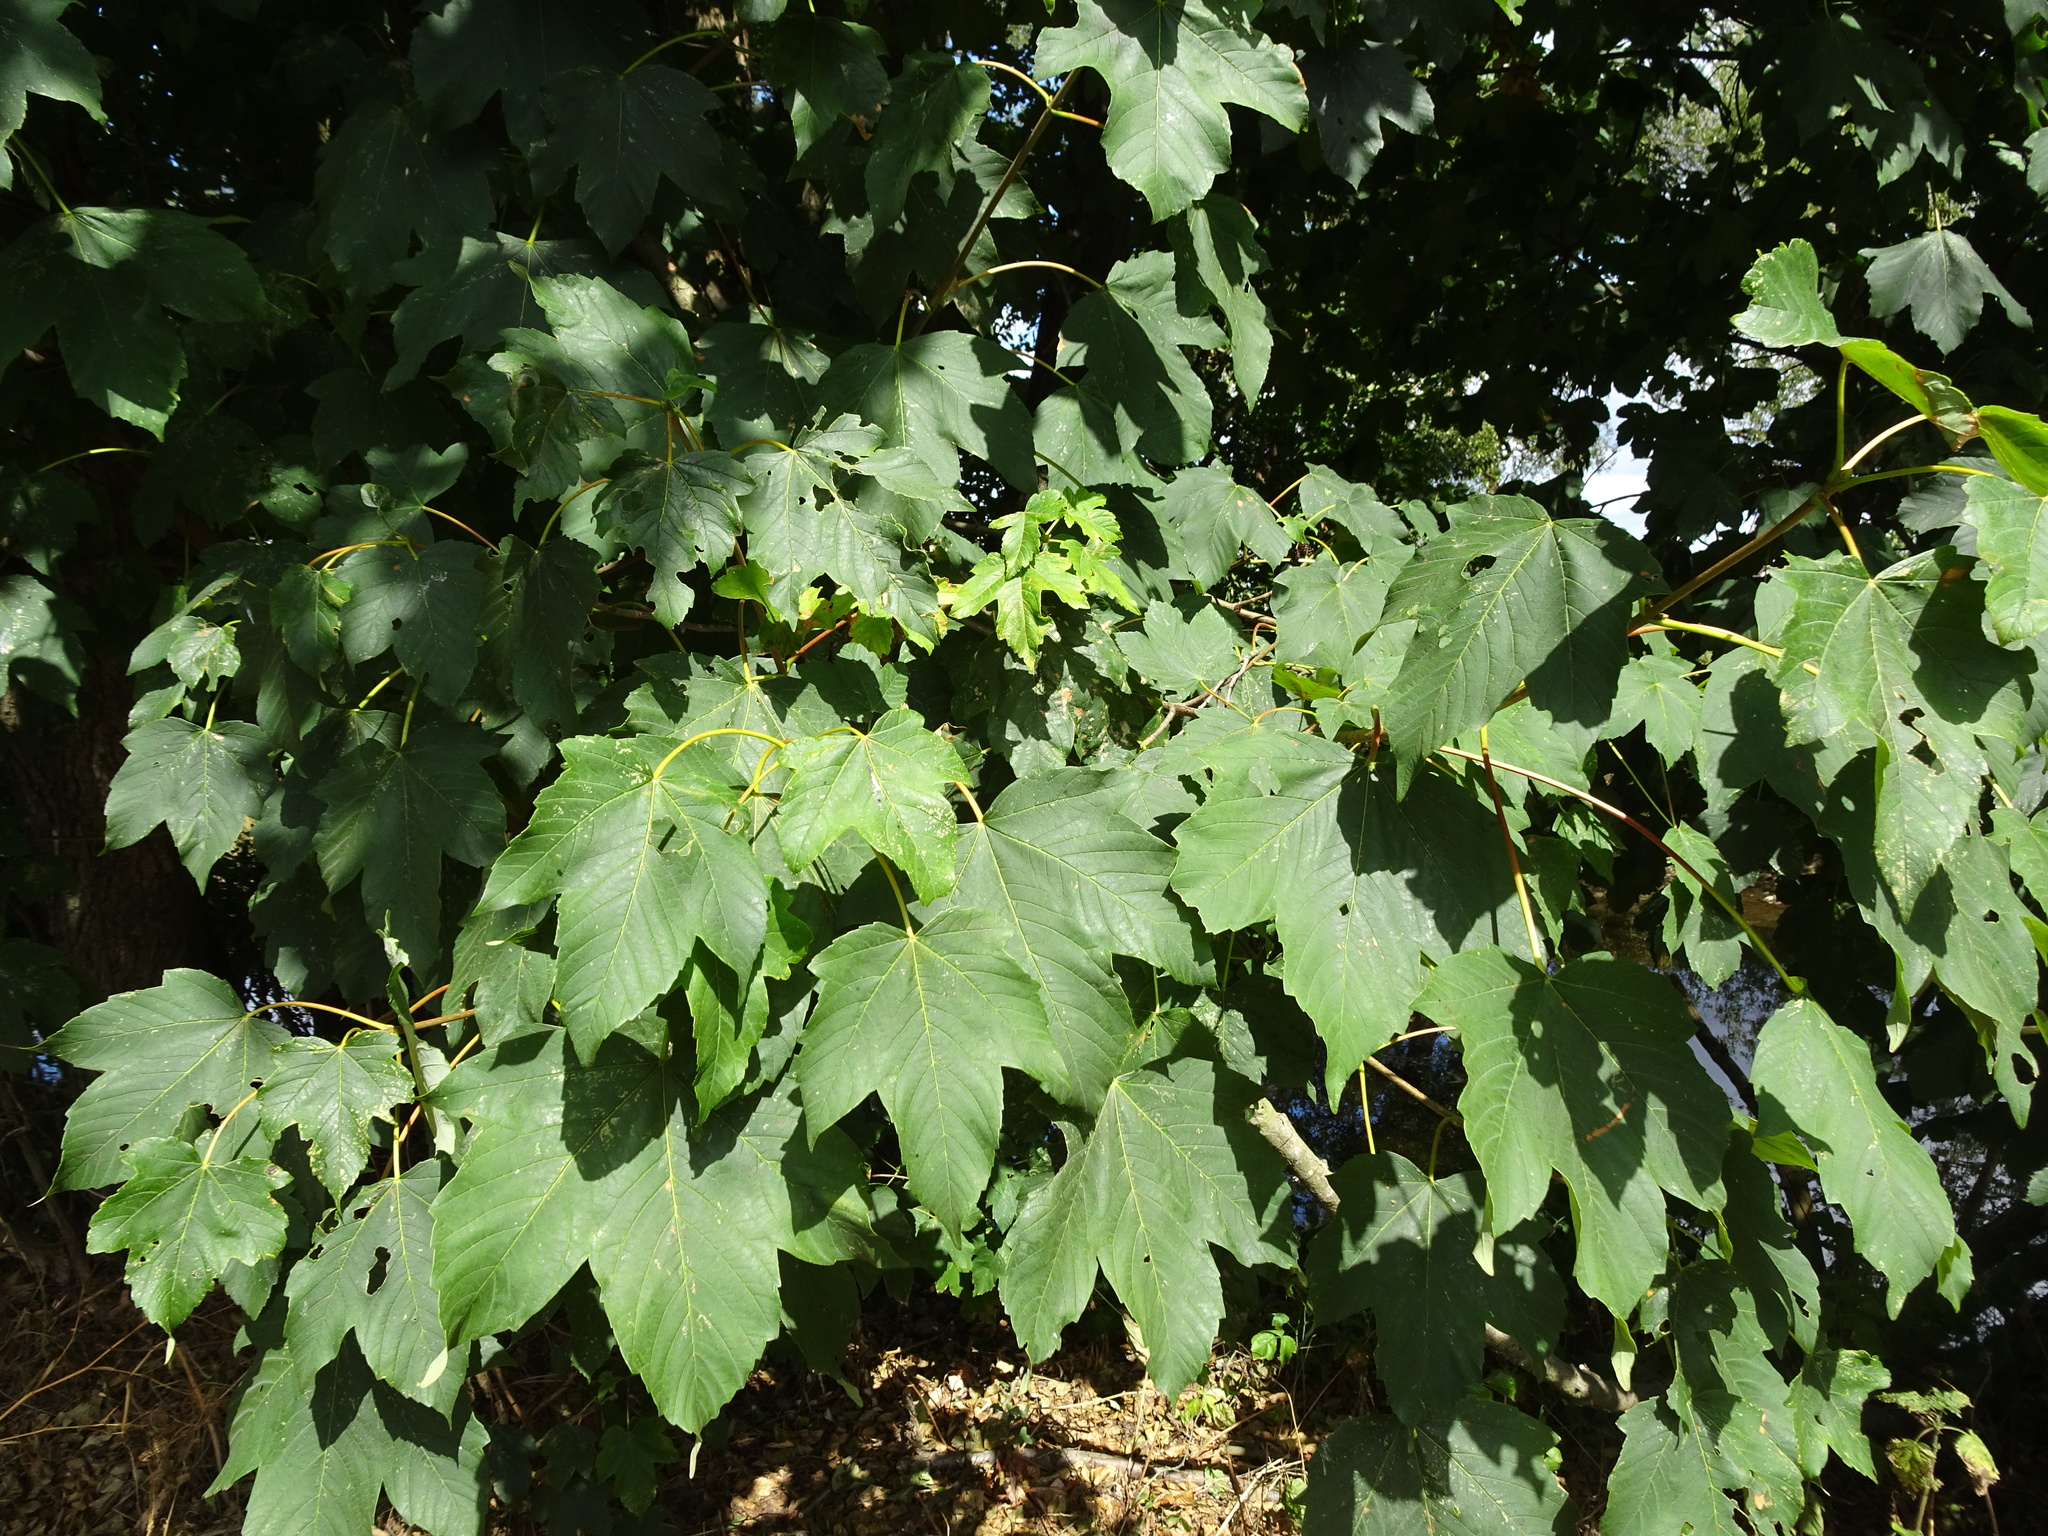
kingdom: Plantae
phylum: Tracheophyta
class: Magnoliopsida
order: Sapindales
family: Sapindaceae
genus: Acer
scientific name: Acer pseudoplatanus
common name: Sycamore
